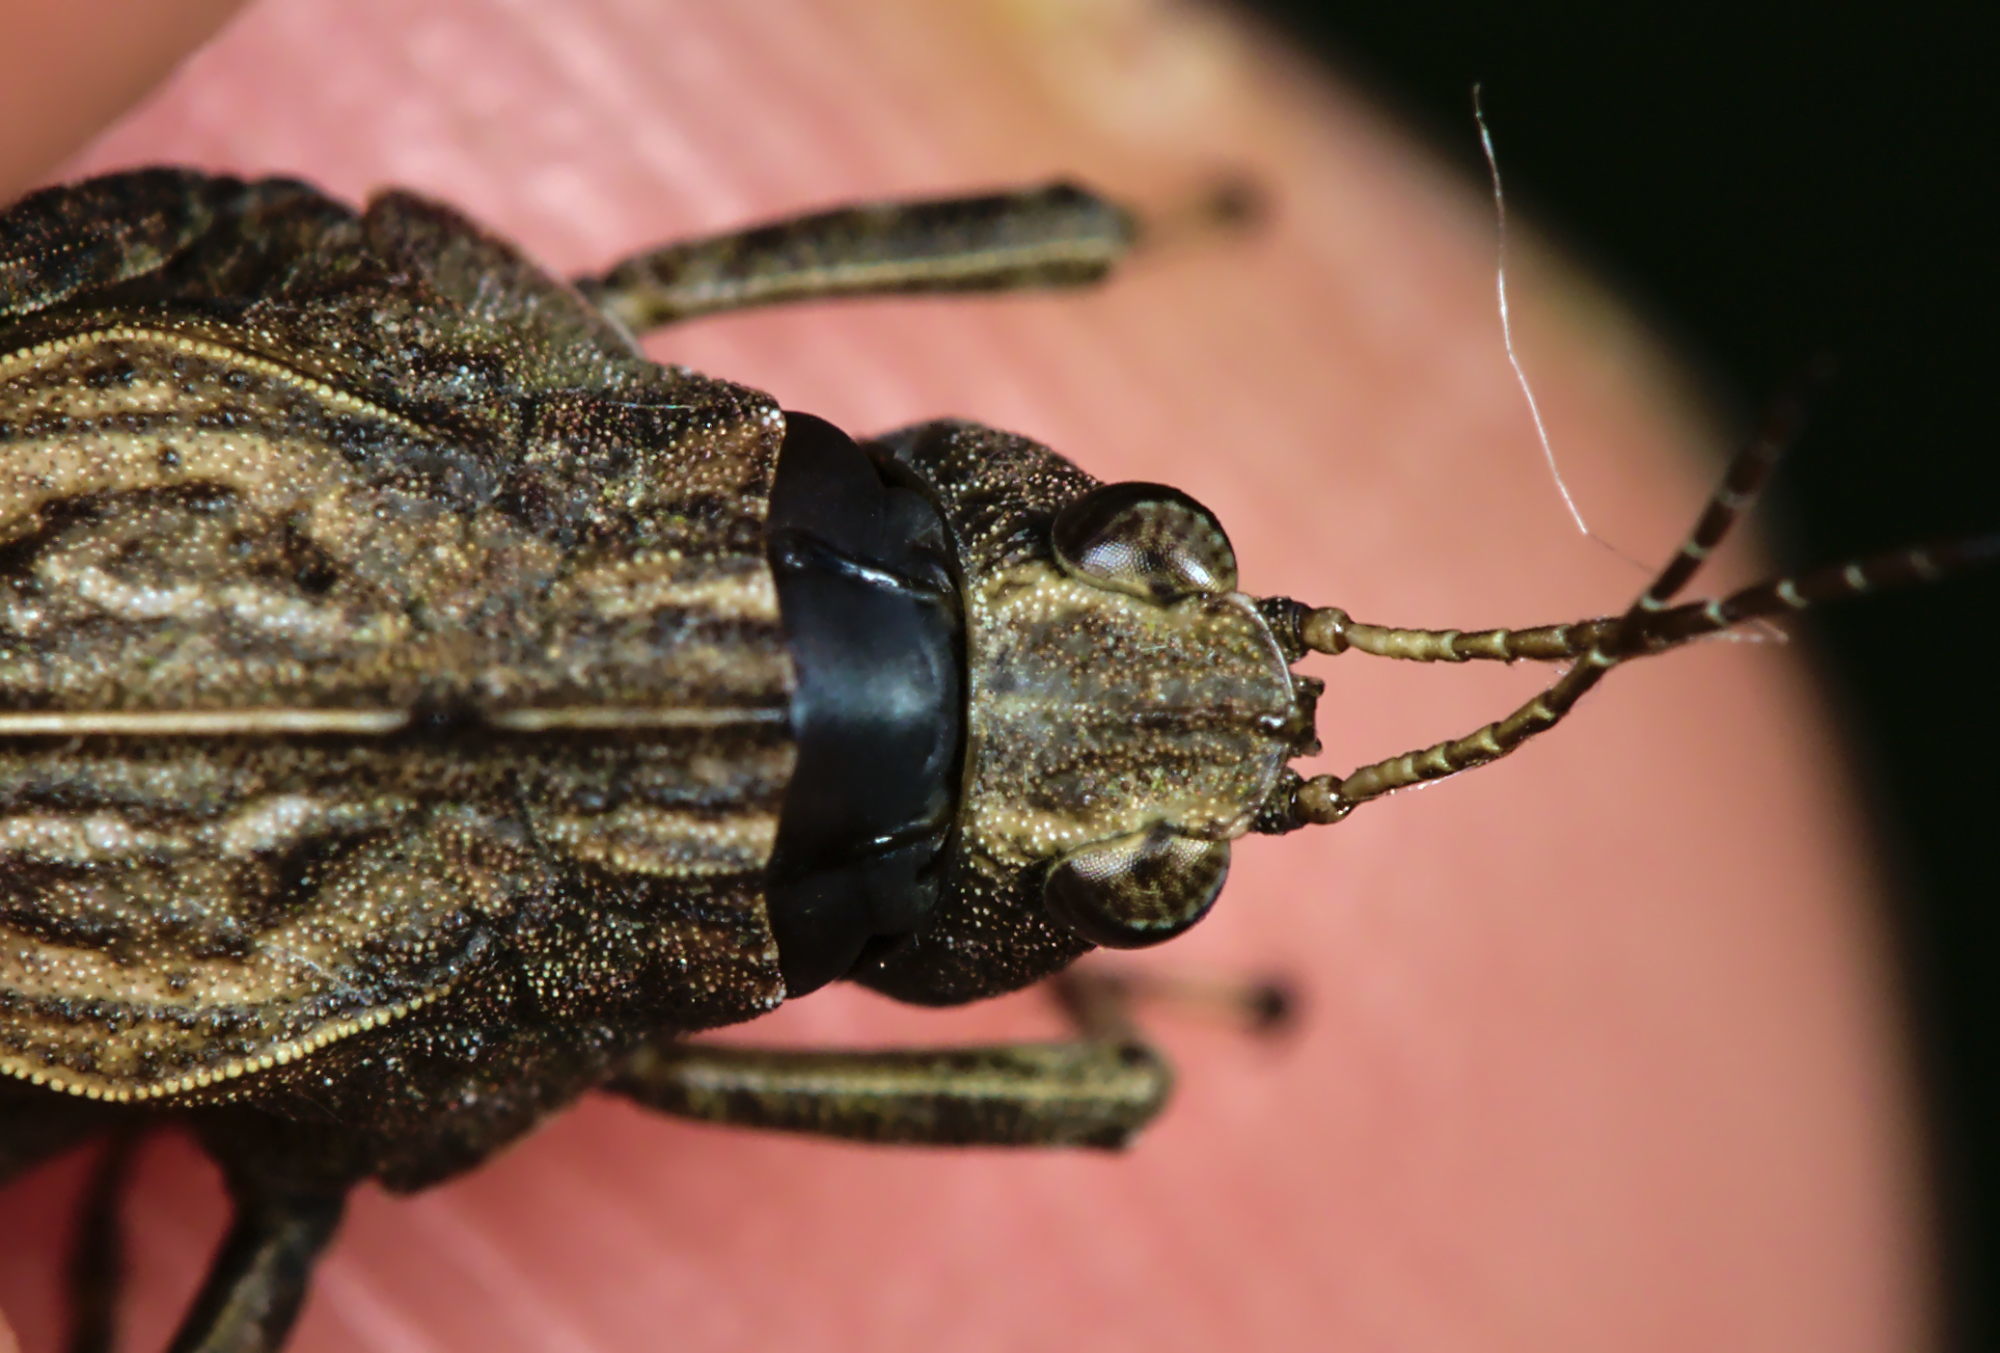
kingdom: Animalia
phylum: Arthropoda
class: Insecta
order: Orthoptera
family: Tetrigidae
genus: Tetrix
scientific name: Tetrix undulata
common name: Common groundhopper
